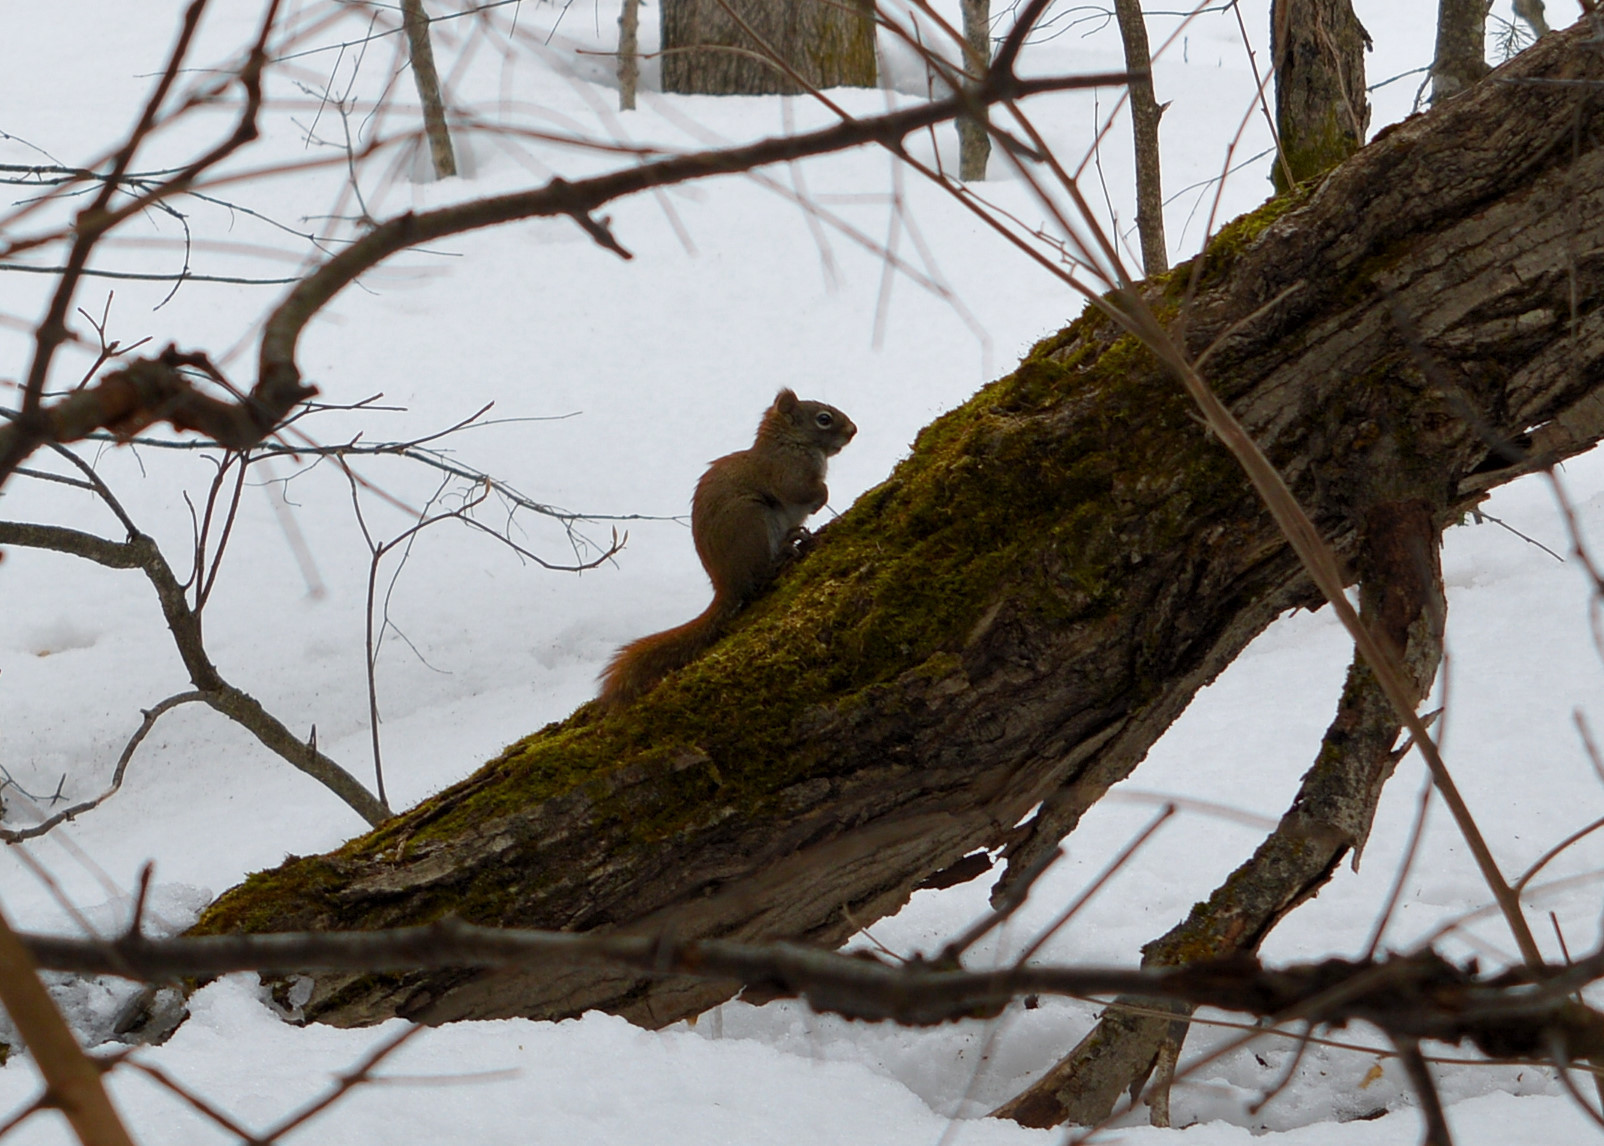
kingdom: Animalia
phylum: Chordata
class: Mammalia
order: Rodentia
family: Sciuridae
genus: Tamiasciurus
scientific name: Tamiasciurus hudsonicus
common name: Red squirrel
